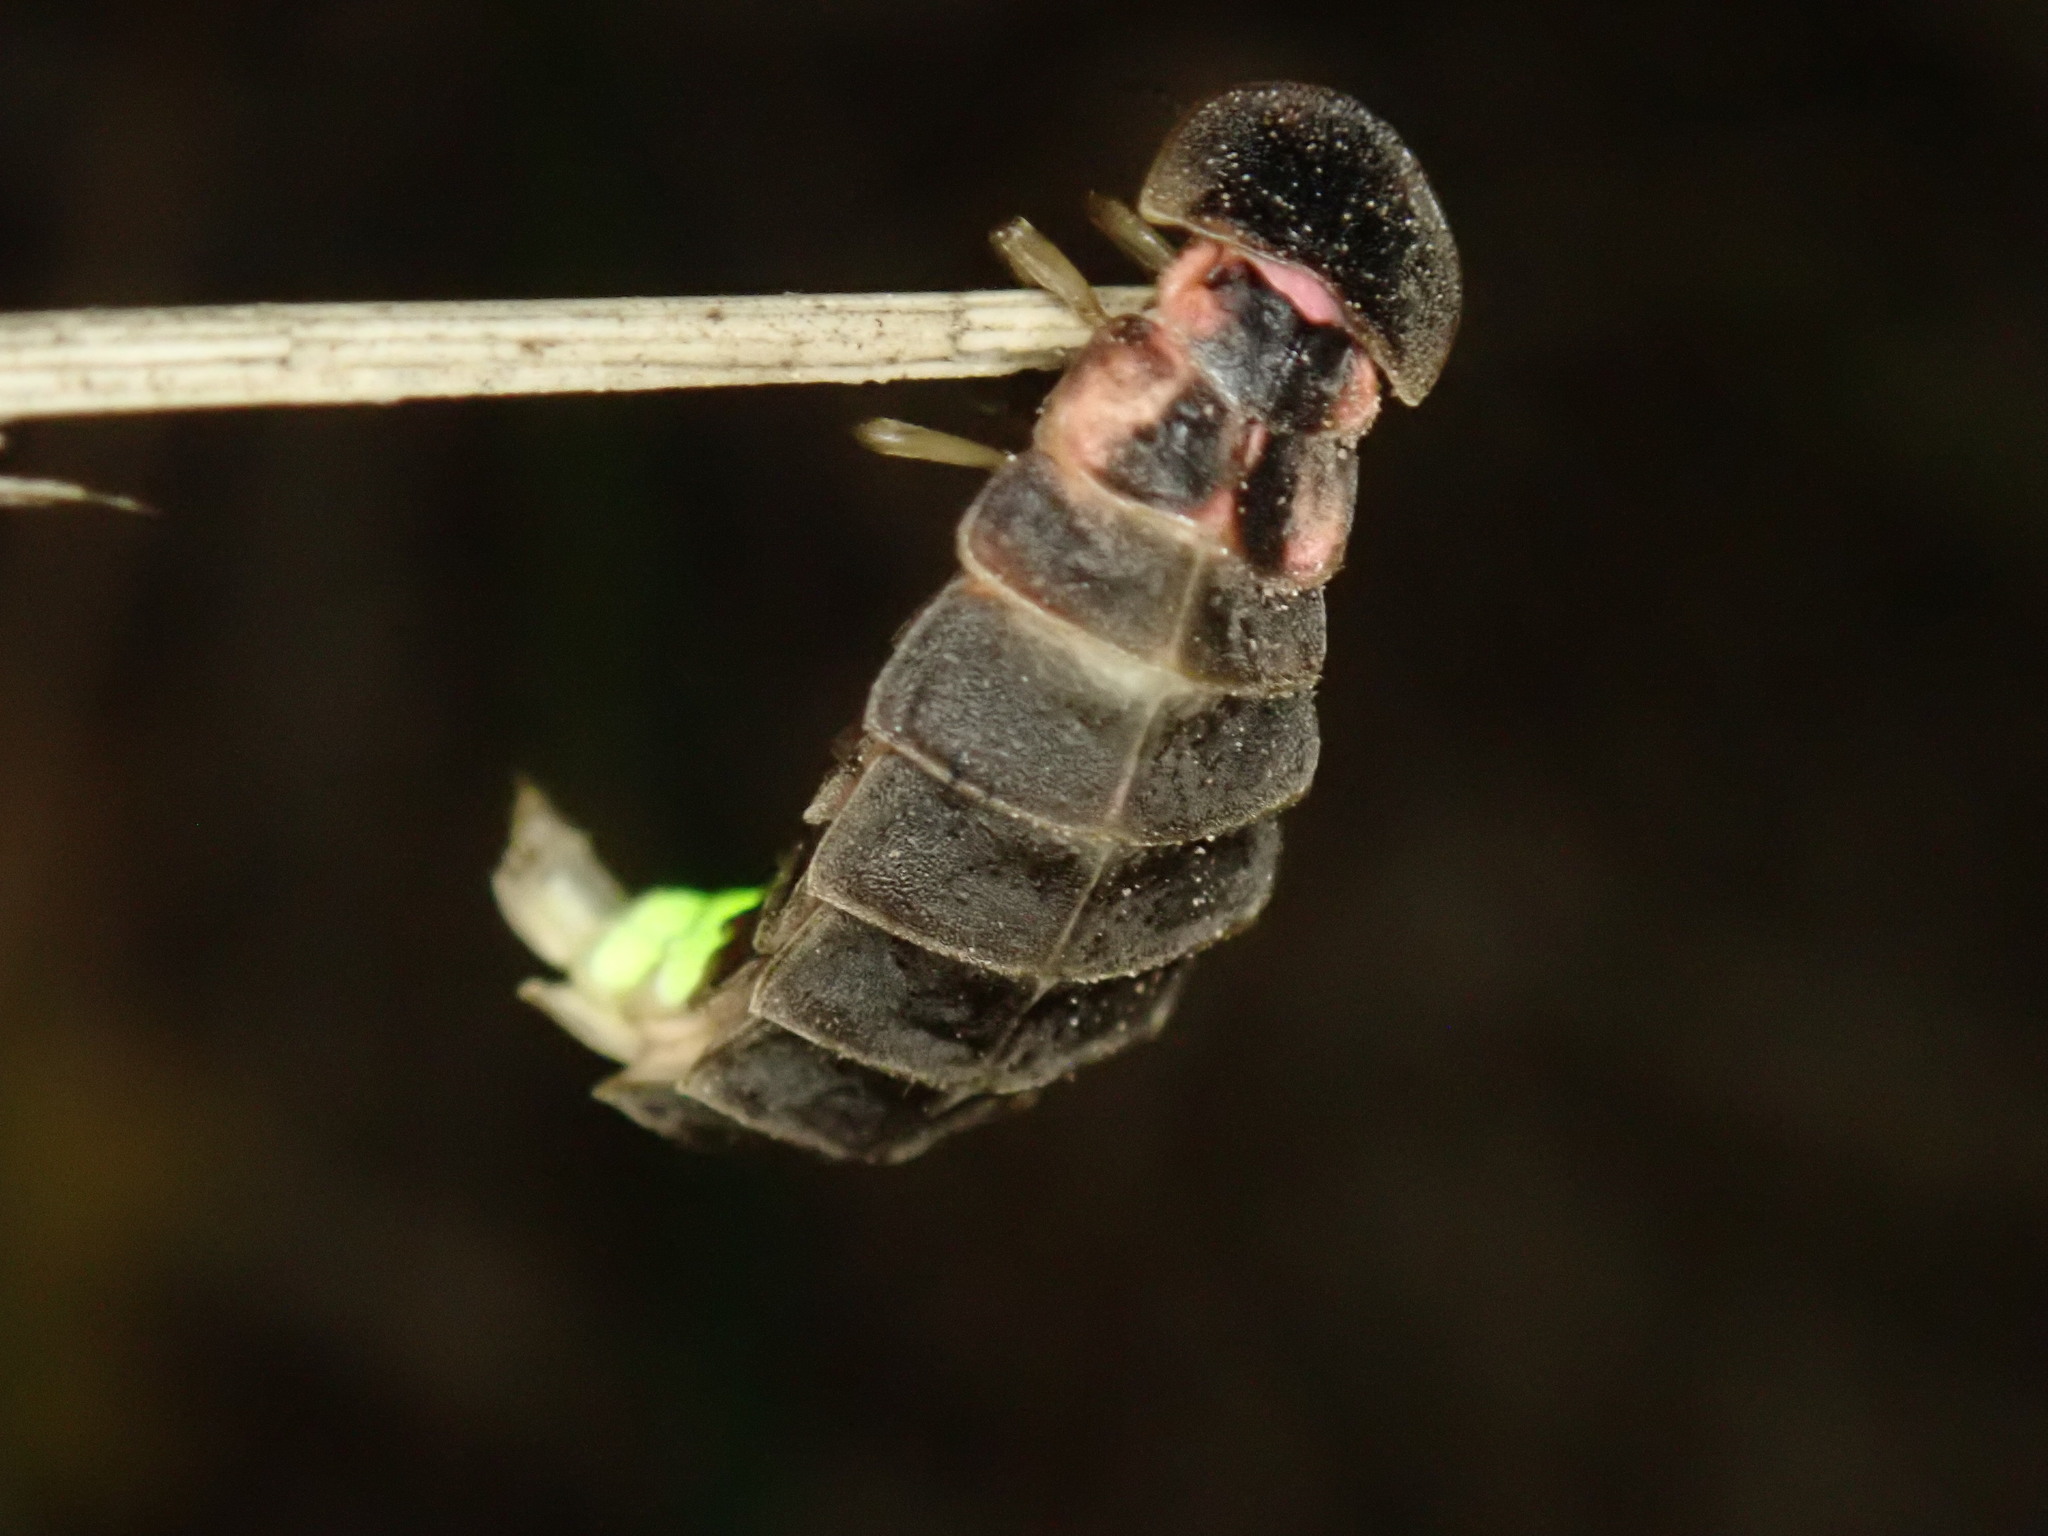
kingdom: Animalia
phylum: Arthropoda
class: Insecta
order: Coleoptera
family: Lampyridae
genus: Lampyris
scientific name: Lampyris noctiluca
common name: Glow-worm
